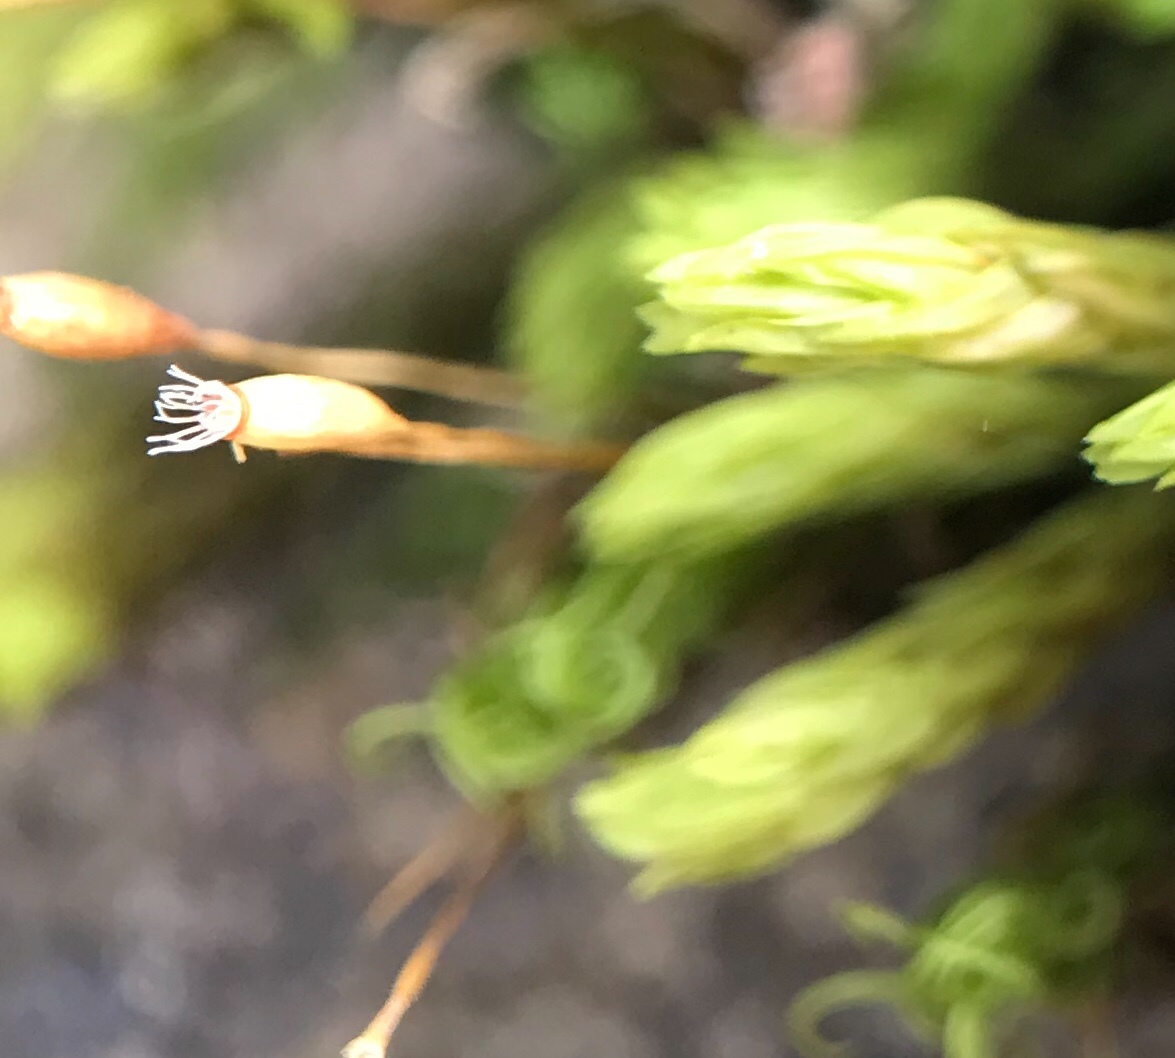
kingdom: Plantae
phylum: Bryophyta
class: Bryopsida
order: Grimmiales
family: Ptychomitriaceae
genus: Ptychomitrium
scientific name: Ptychomitrium polyphyllum
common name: Greater pincushion
